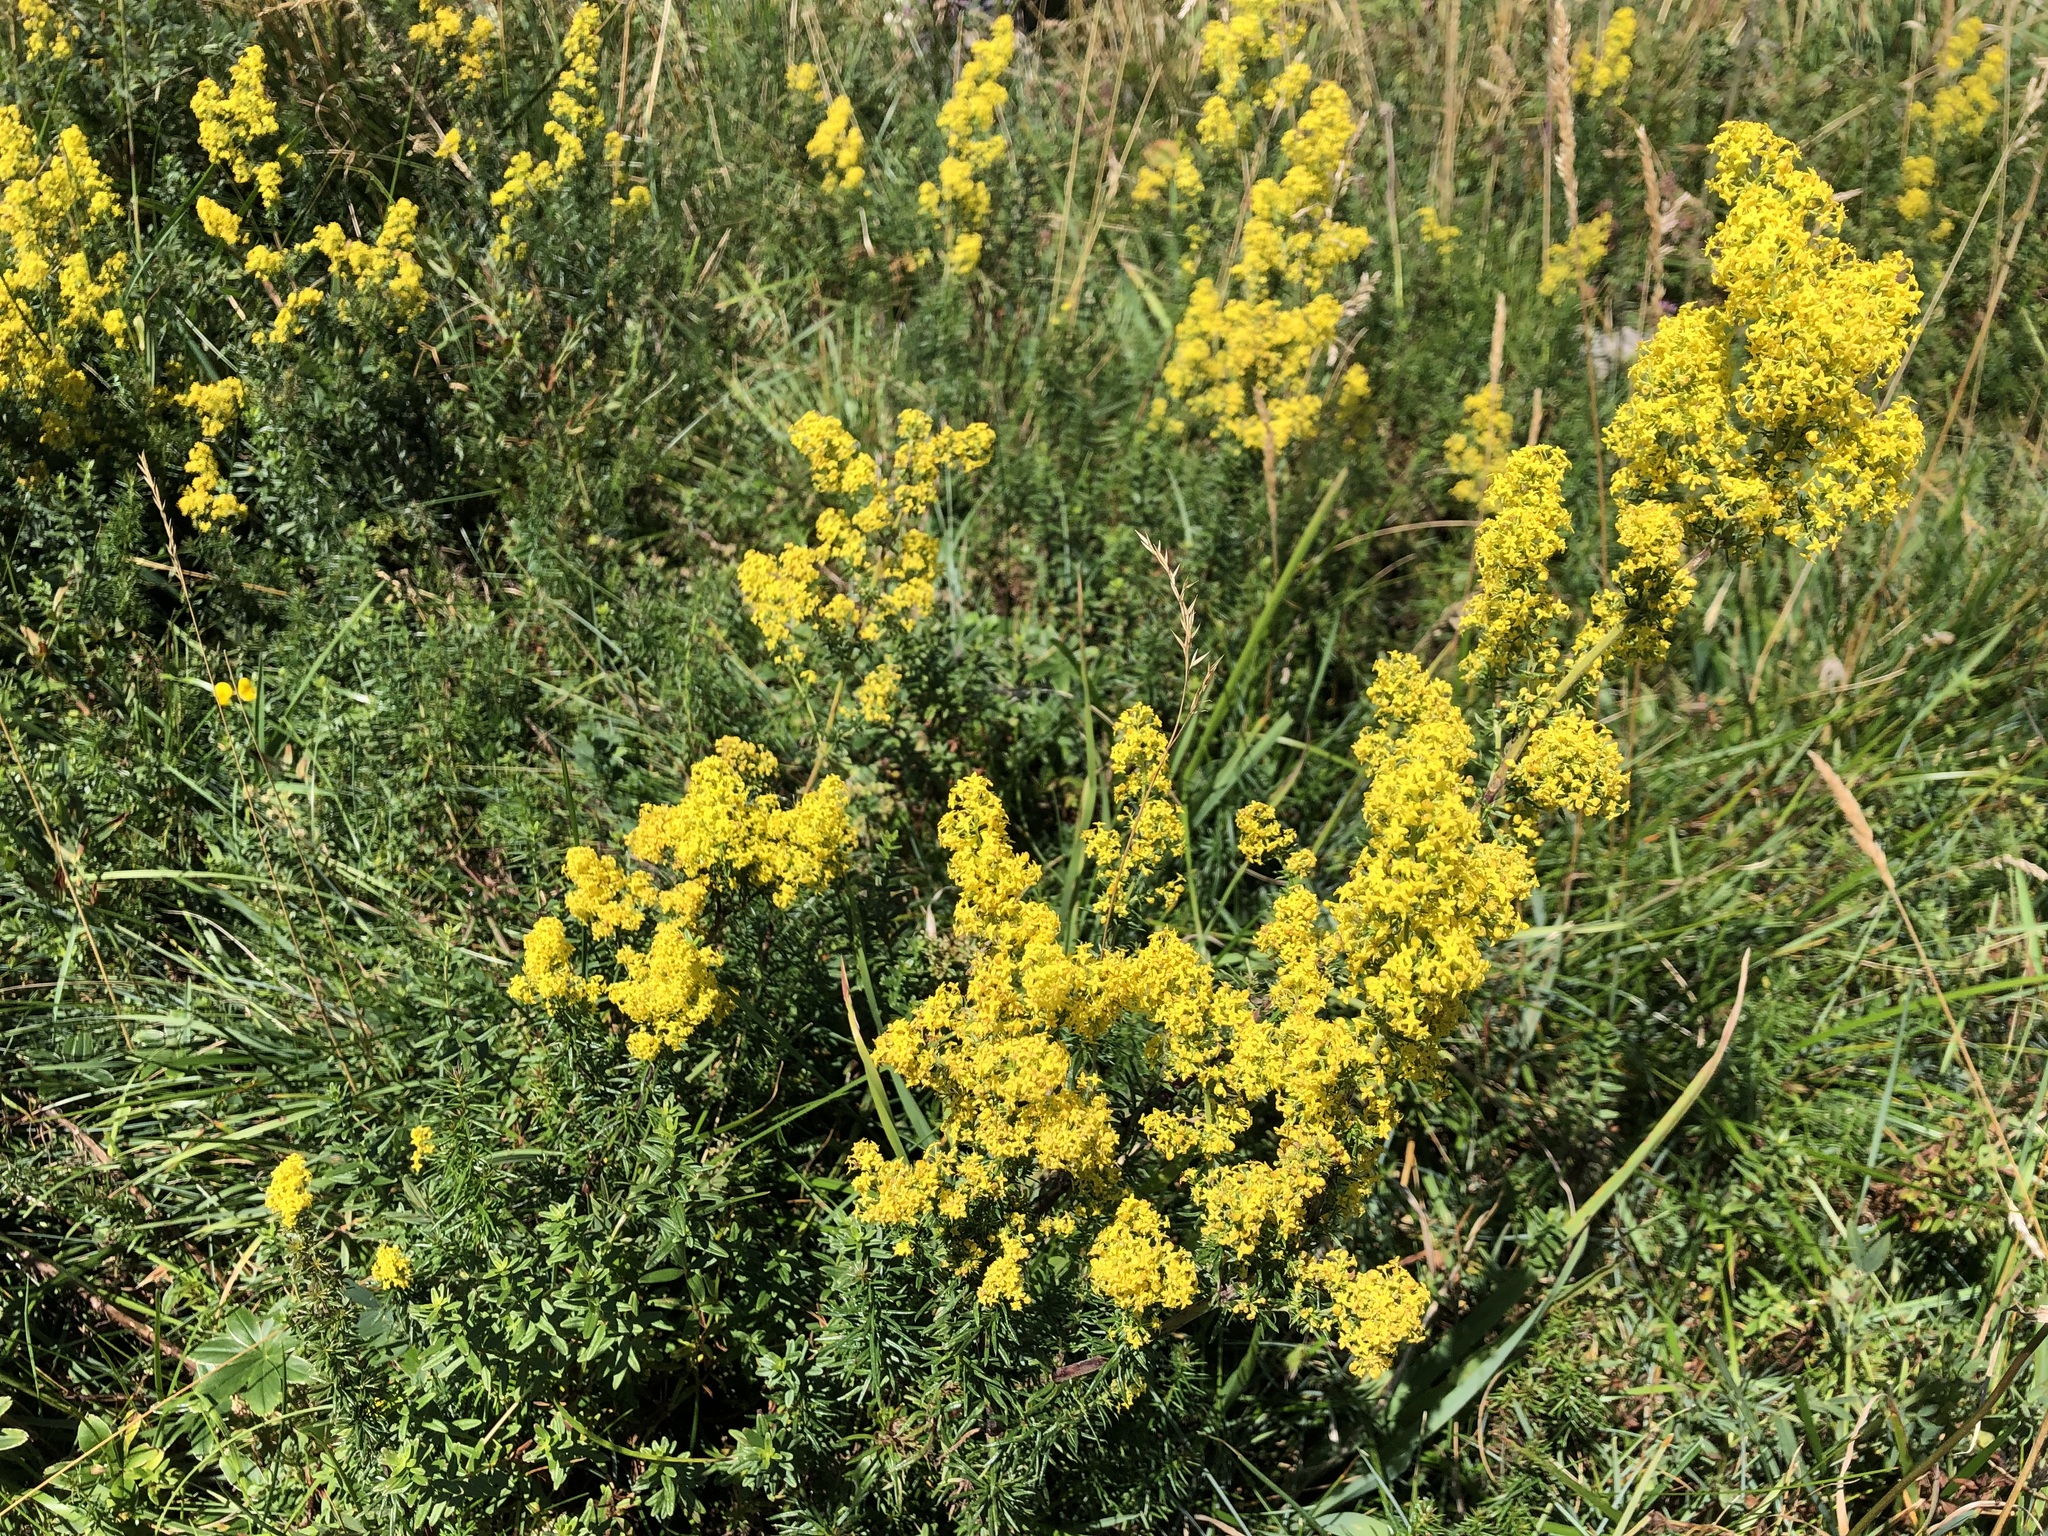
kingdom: Plantae
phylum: Tracheophyta
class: Magnoliopsida
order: Gentianales
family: Rubiaceae
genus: Galium
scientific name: Galium verum
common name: Lady's bedstraw
